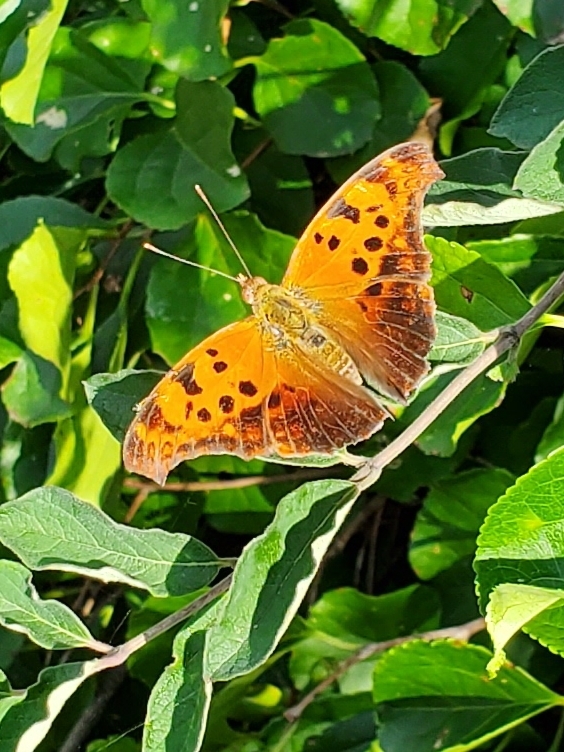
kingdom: Animalia
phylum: Arthropoda
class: Insecta
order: Lepidoptera
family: Nymphalidae
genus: Polygonia
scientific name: Polygonia interrogationis
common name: Question mark
